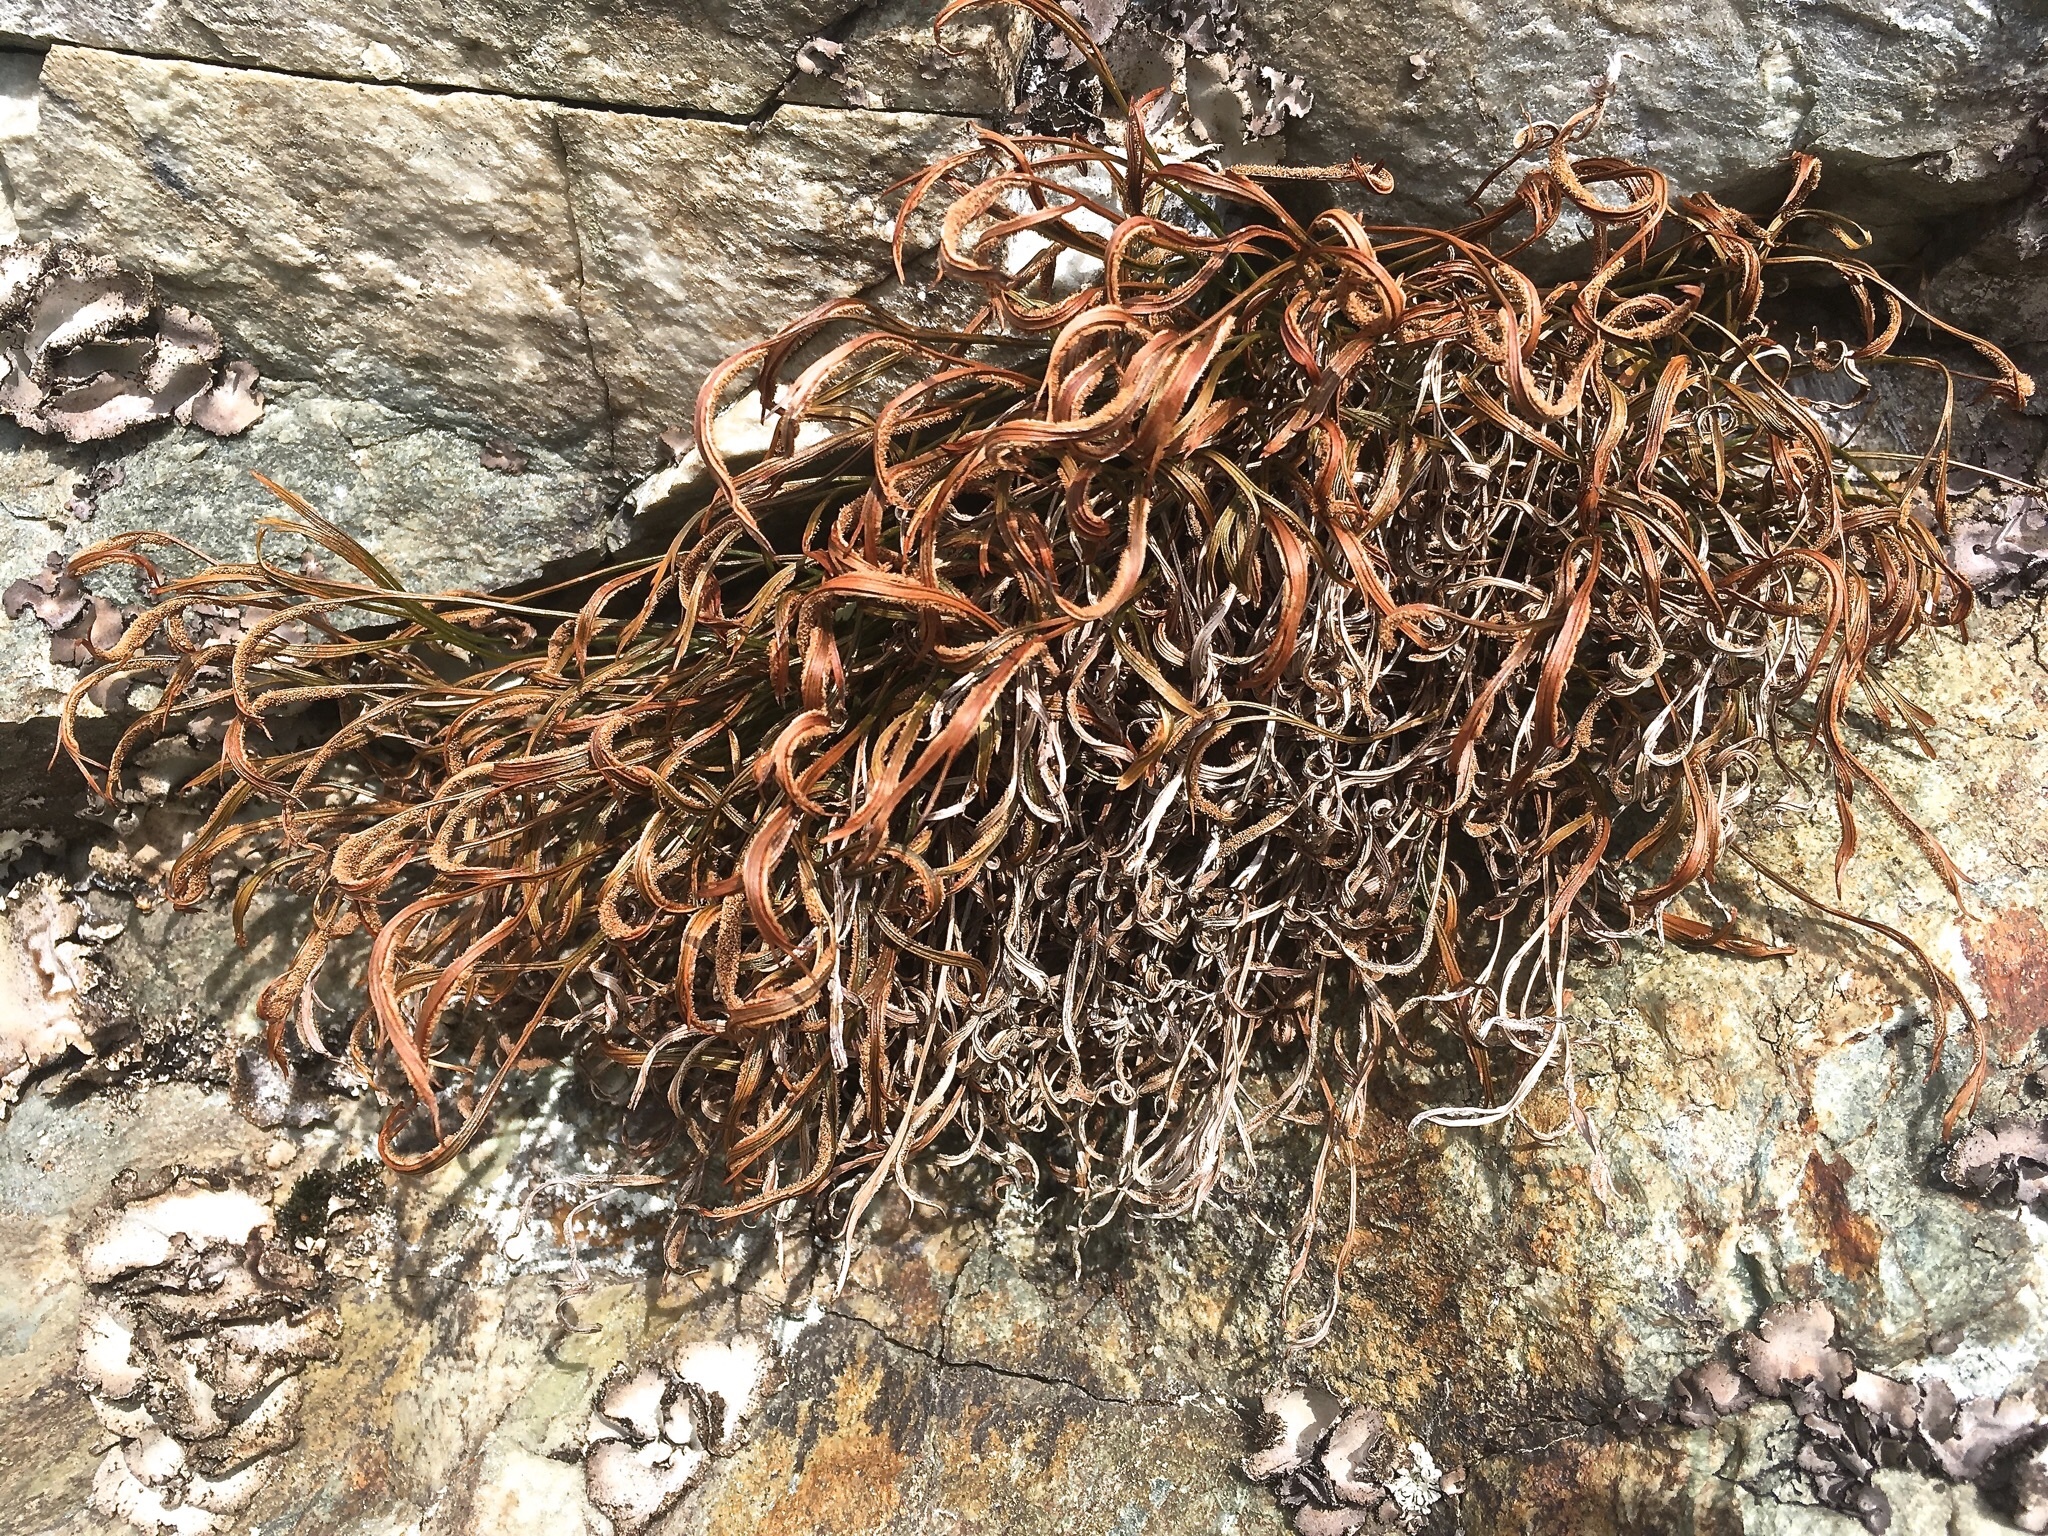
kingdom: Plantae
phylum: Tracheophyta
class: Polypodiopsida
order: Polypodiales
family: Aspleniaceae
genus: Asplenium
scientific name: Asplenium septentrionale
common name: Forked spleenwort
